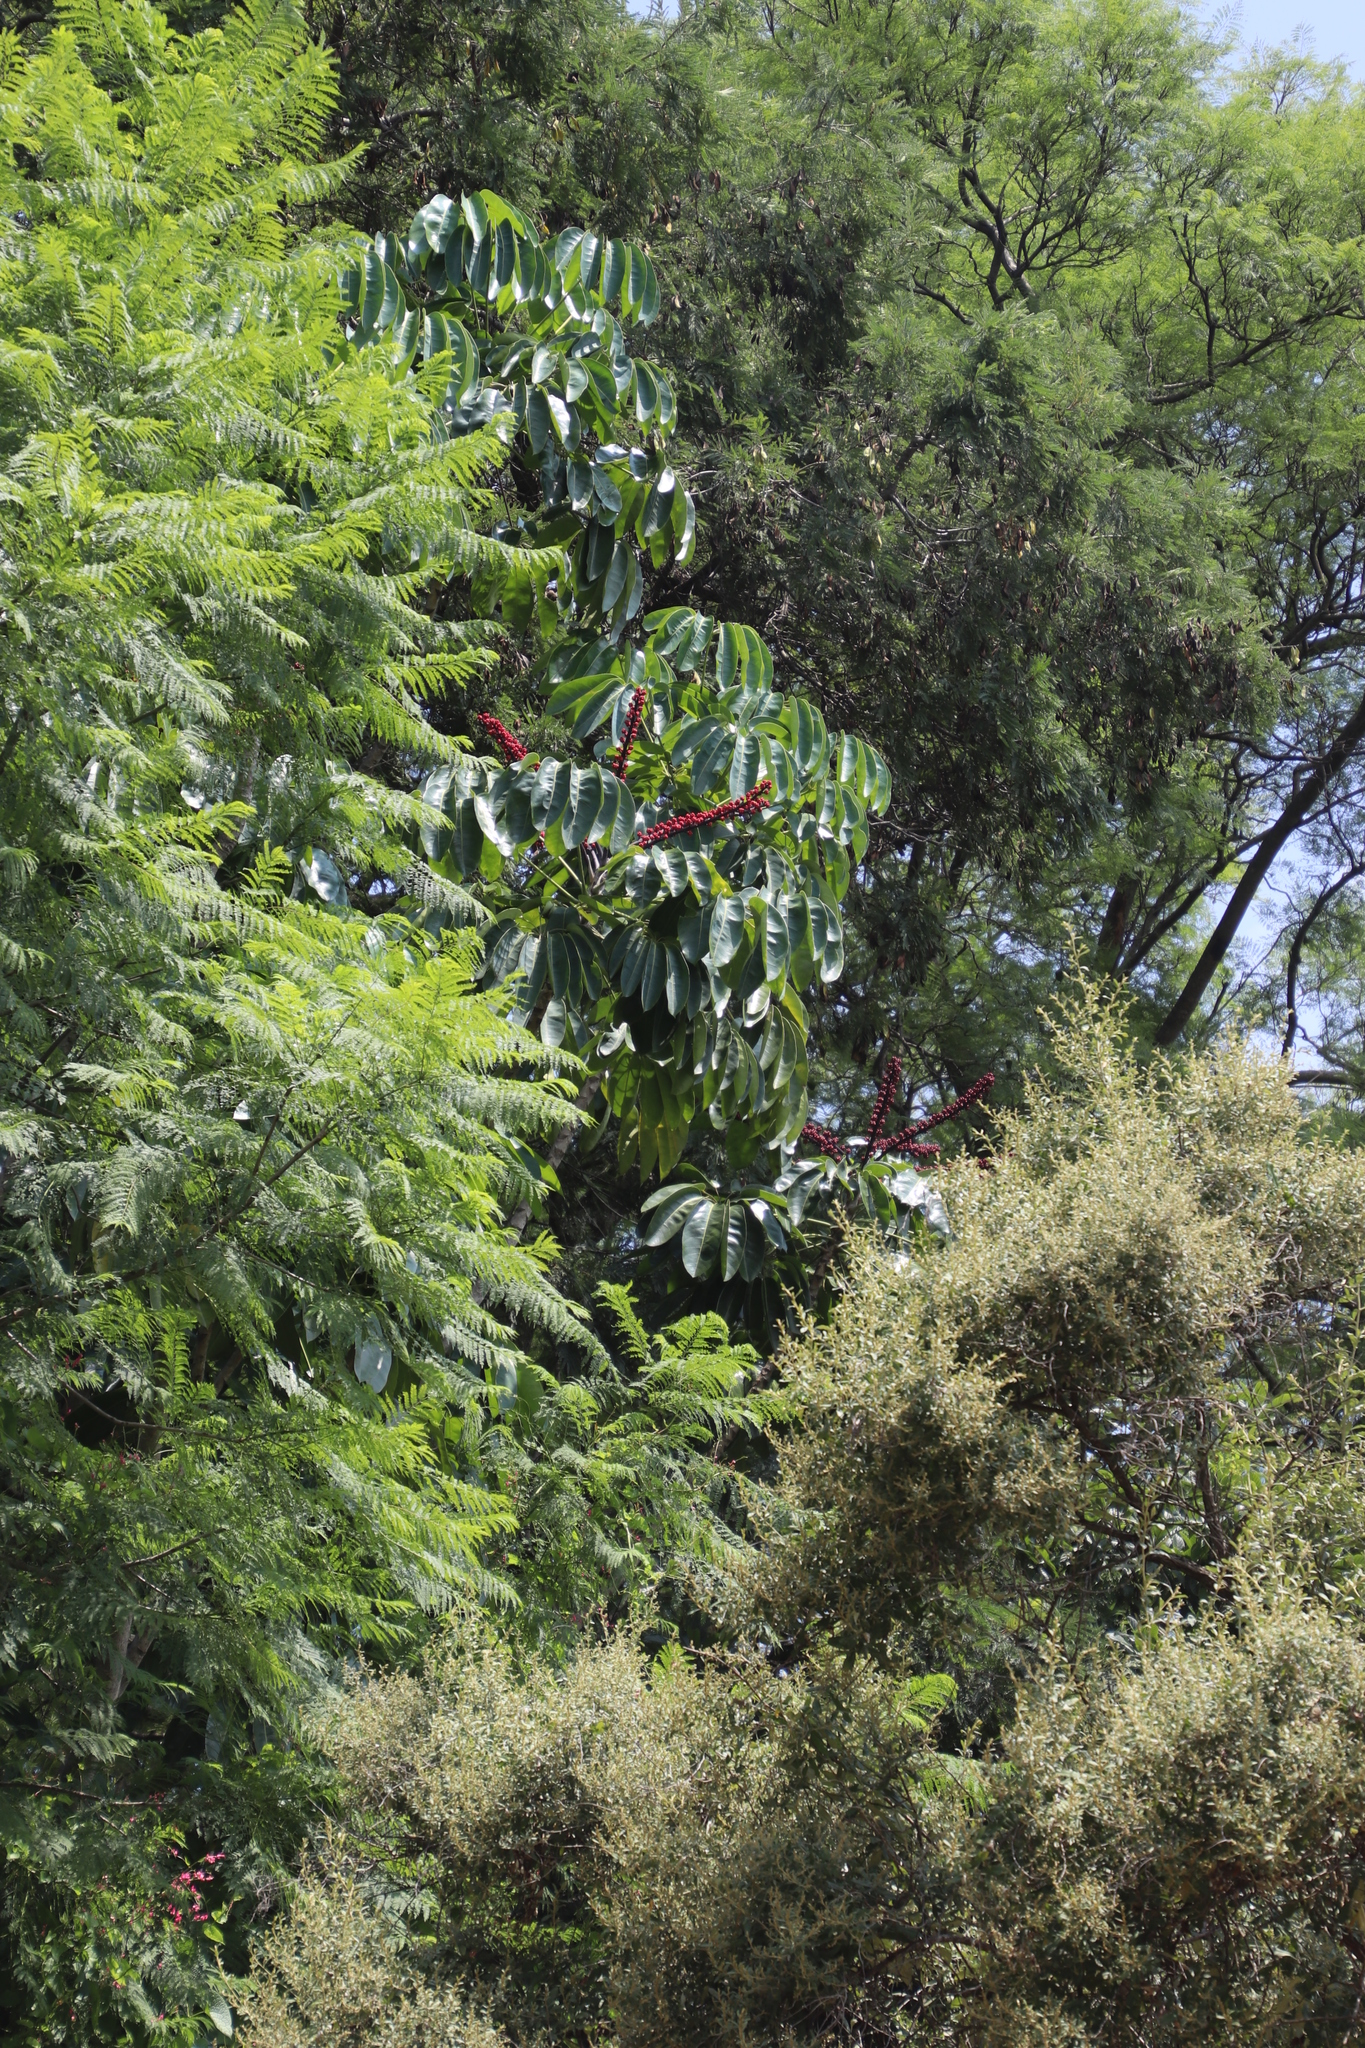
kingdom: Plantae
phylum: Tracheophyta
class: Magnoliopsida
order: Apiales
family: Araliaceae
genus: Heptapleurum
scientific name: Heptapleurum actinophyllum
